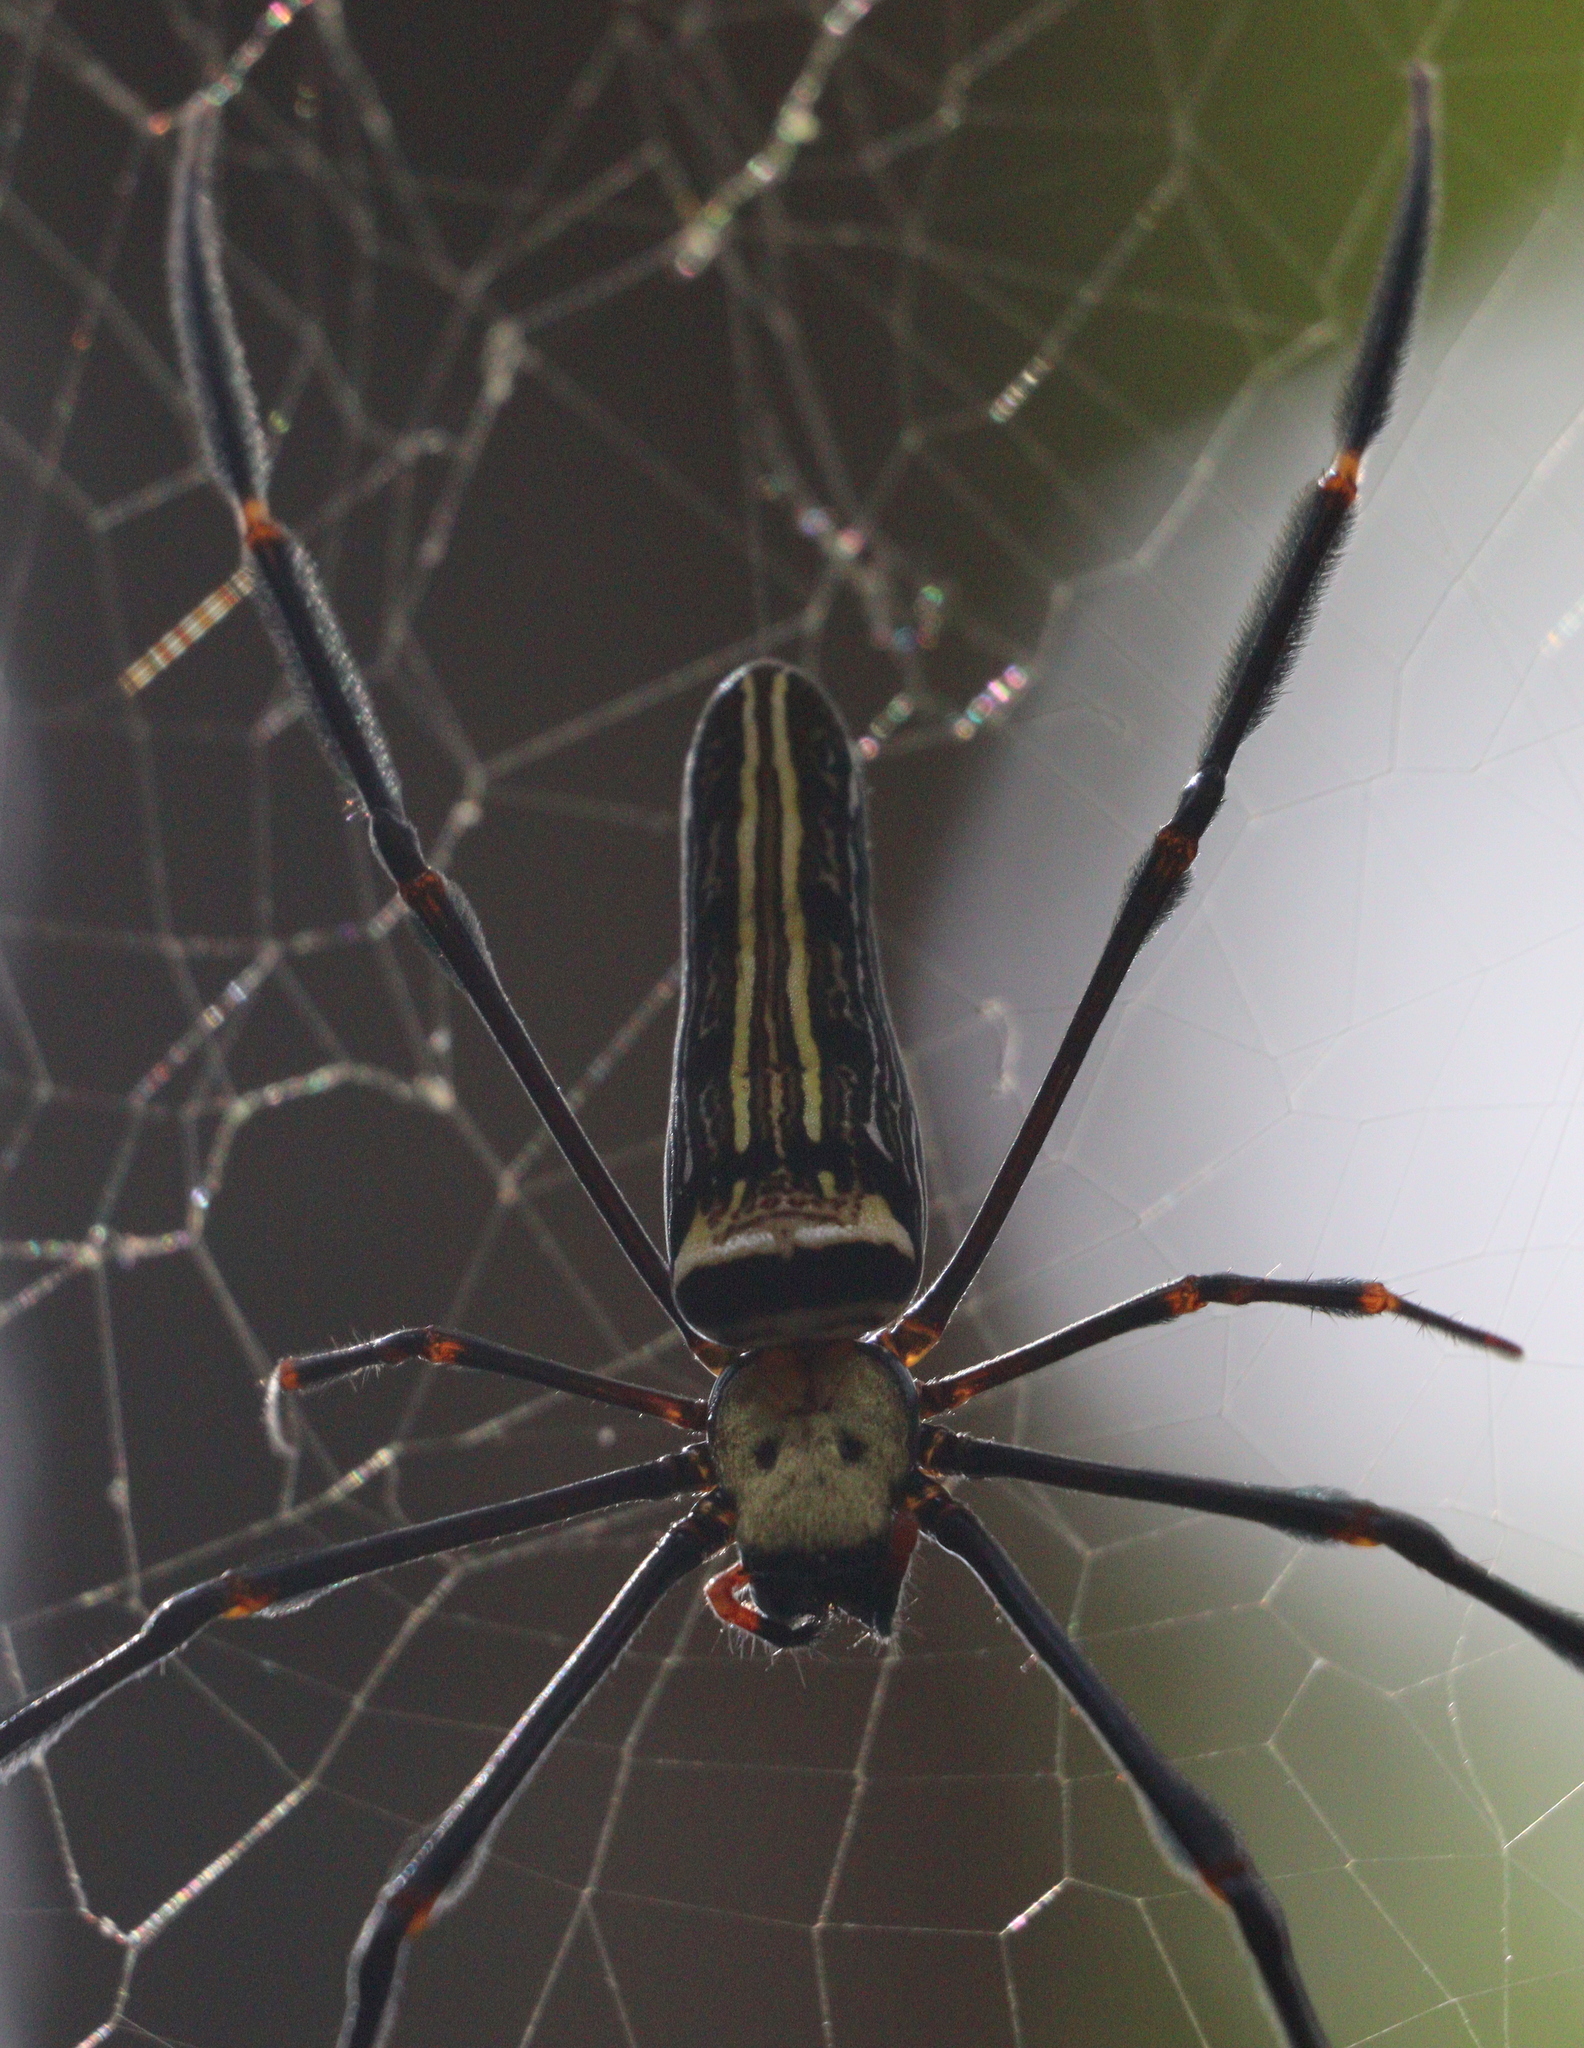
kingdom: Animalia
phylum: Arthropoda
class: Arachnida
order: Araneae
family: Araneidae
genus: Nephila
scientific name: Nephila pilipes
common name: Giant golden orb weaver
